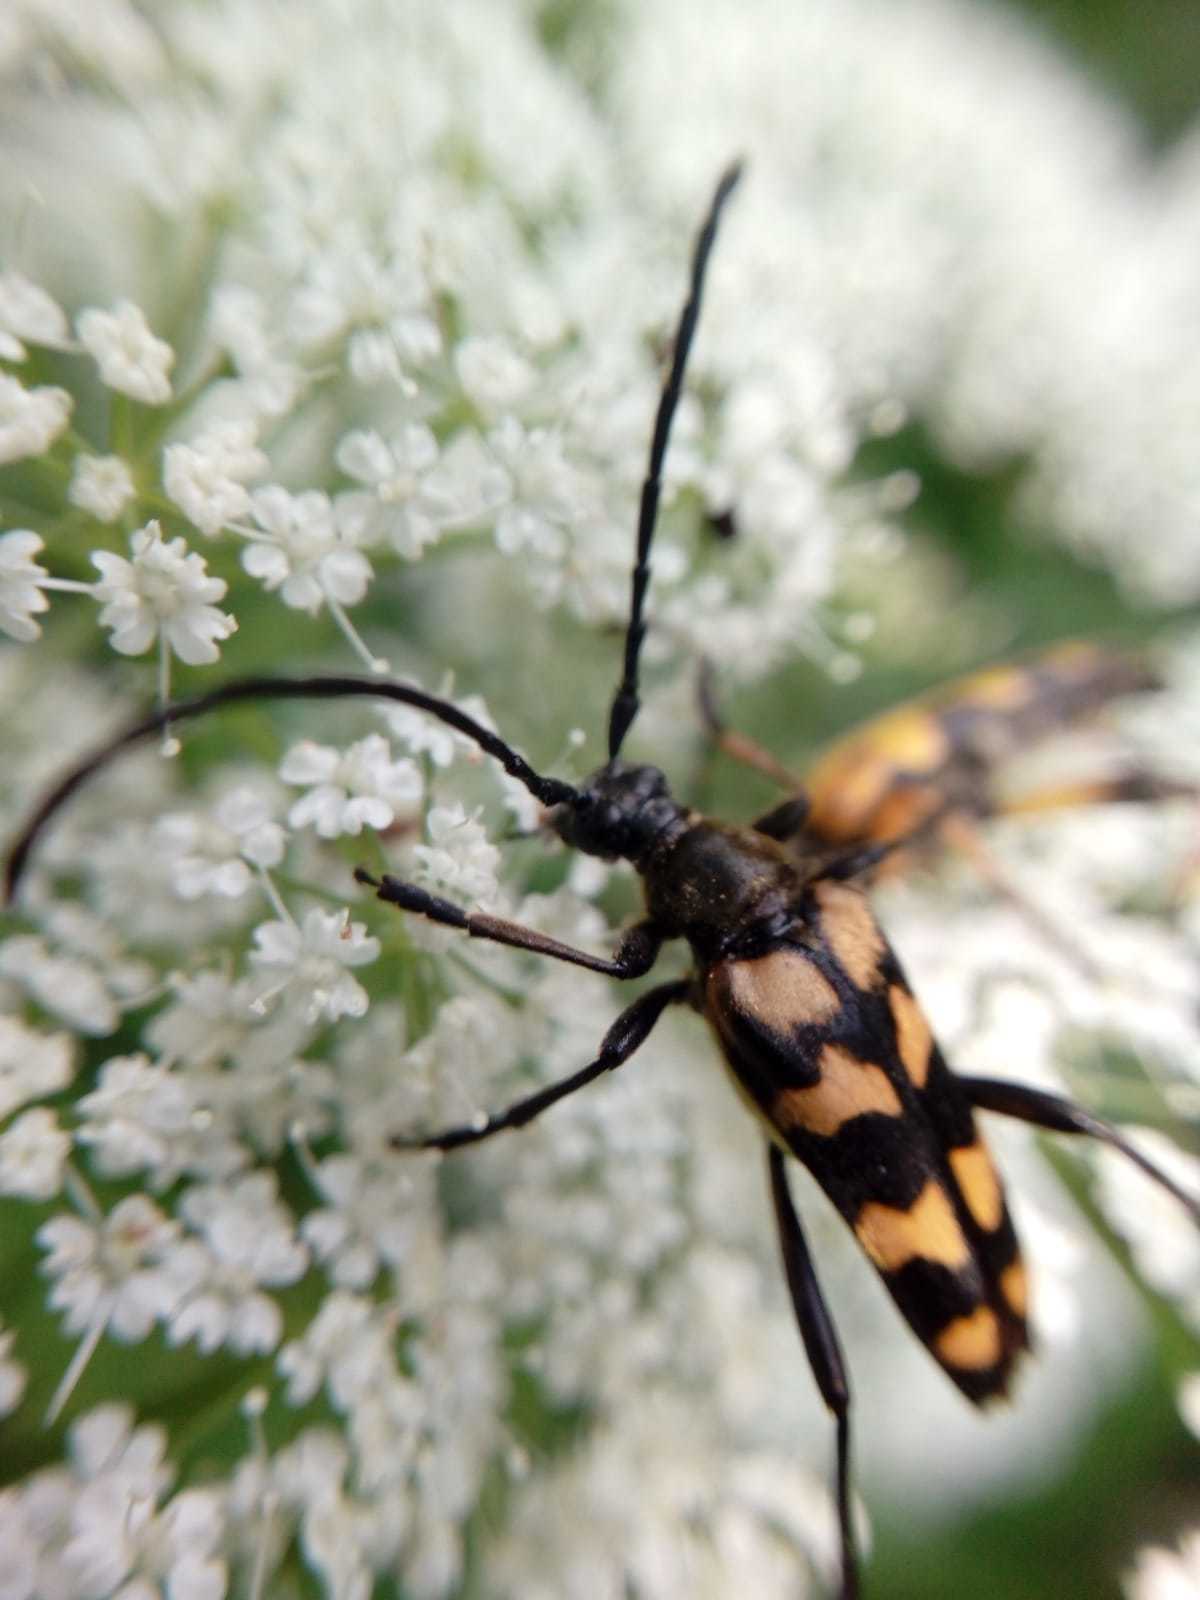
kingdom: Animalia
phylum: Arthropoda
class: Insecta
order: Coleoptera
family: Cerambycidae
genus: Leptura
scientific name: Leptura quadrifasciata
